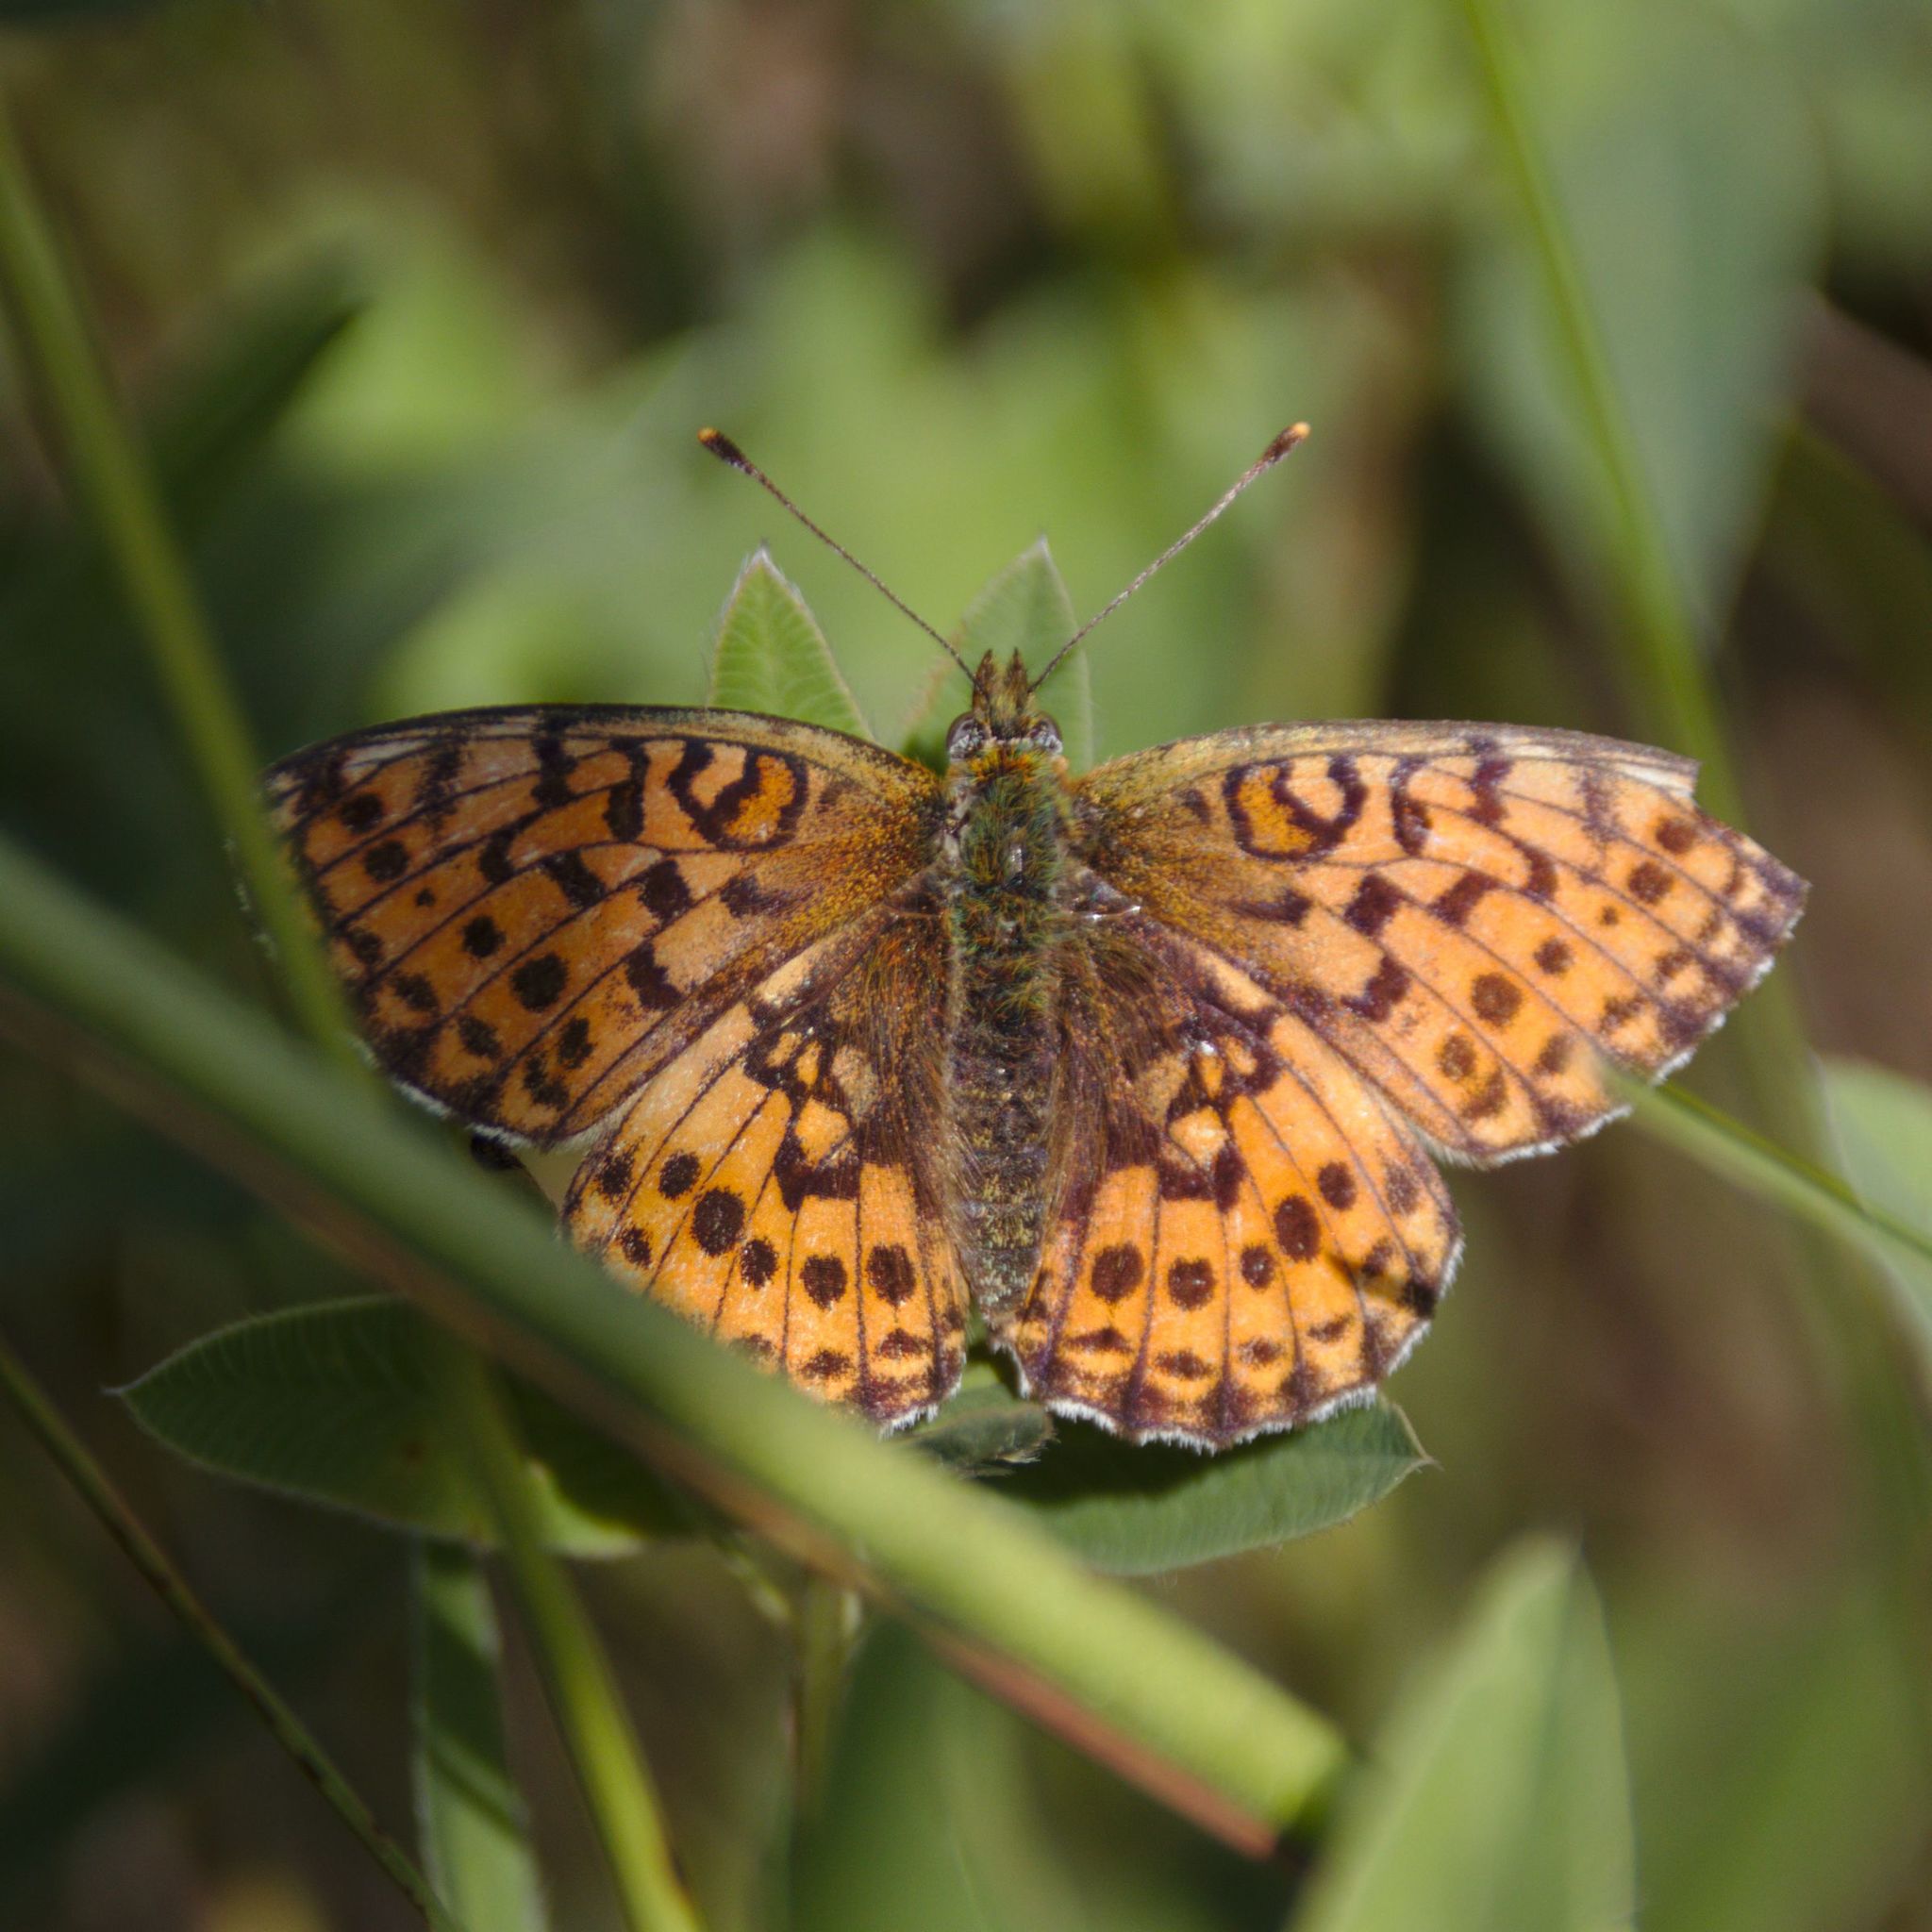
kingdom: Animalia
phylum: Arthropoda
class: Insecta
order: Lepidoptera
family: Nymphalidae
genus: Brenthis
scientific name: Brenthis ino
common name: Lesser marbled fritillary
